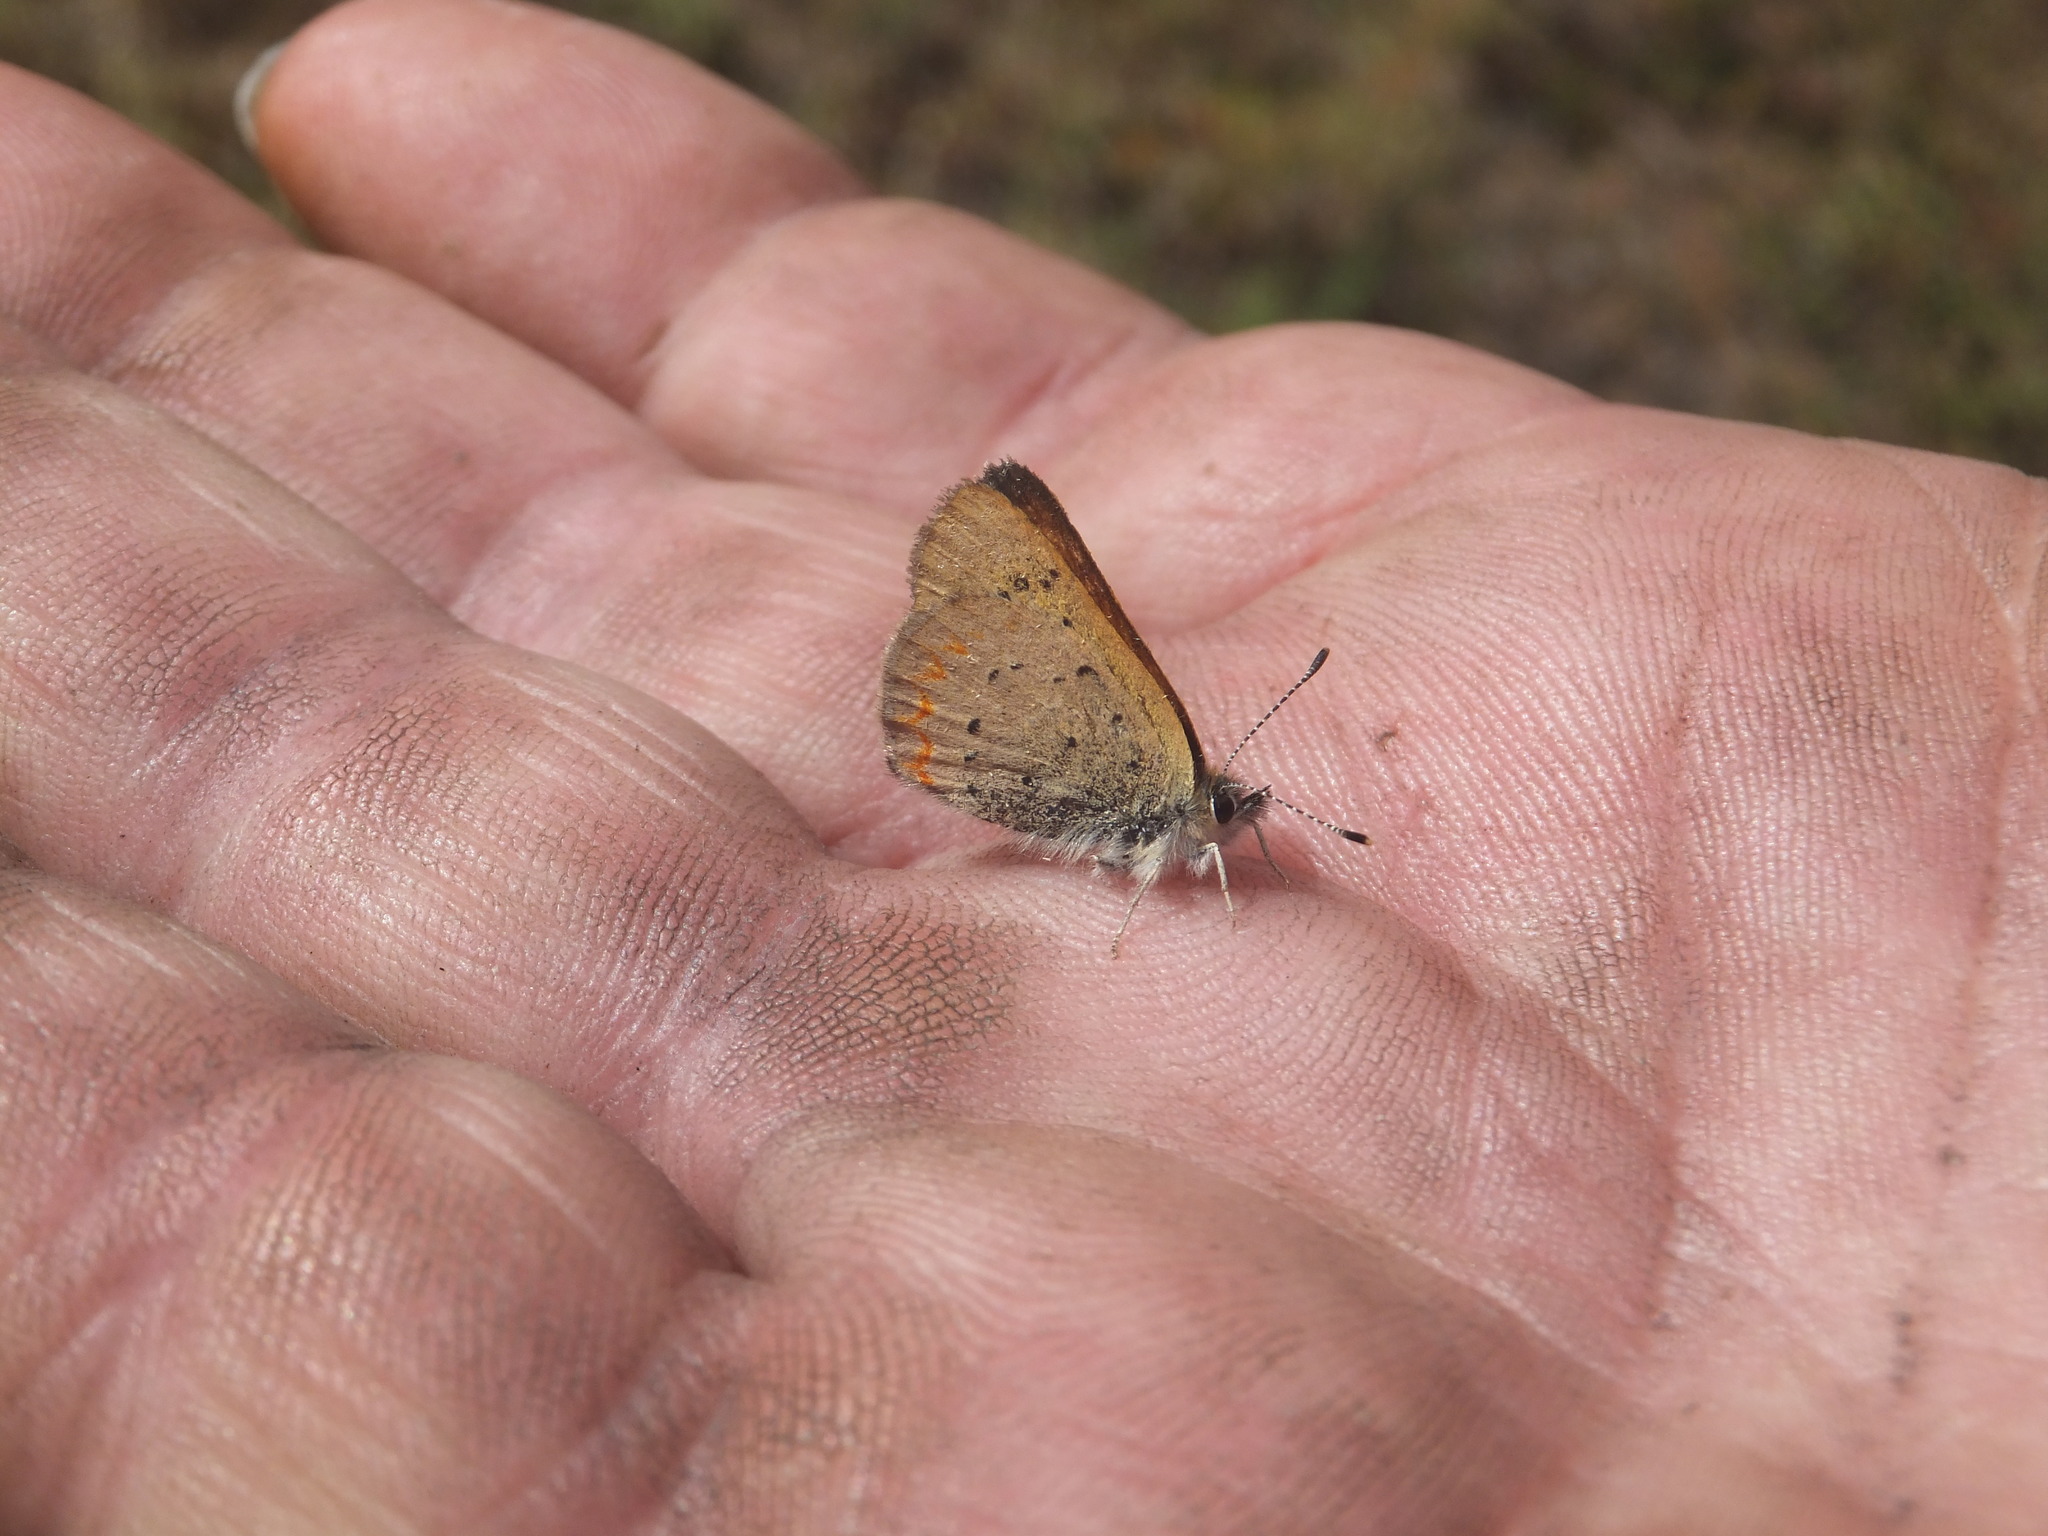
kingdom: Animalia
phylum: Arthropoda
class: Insecta
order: Lepidoptera
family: Lycaenidae
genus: Tharsalea
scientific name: Tharsalea helloides
